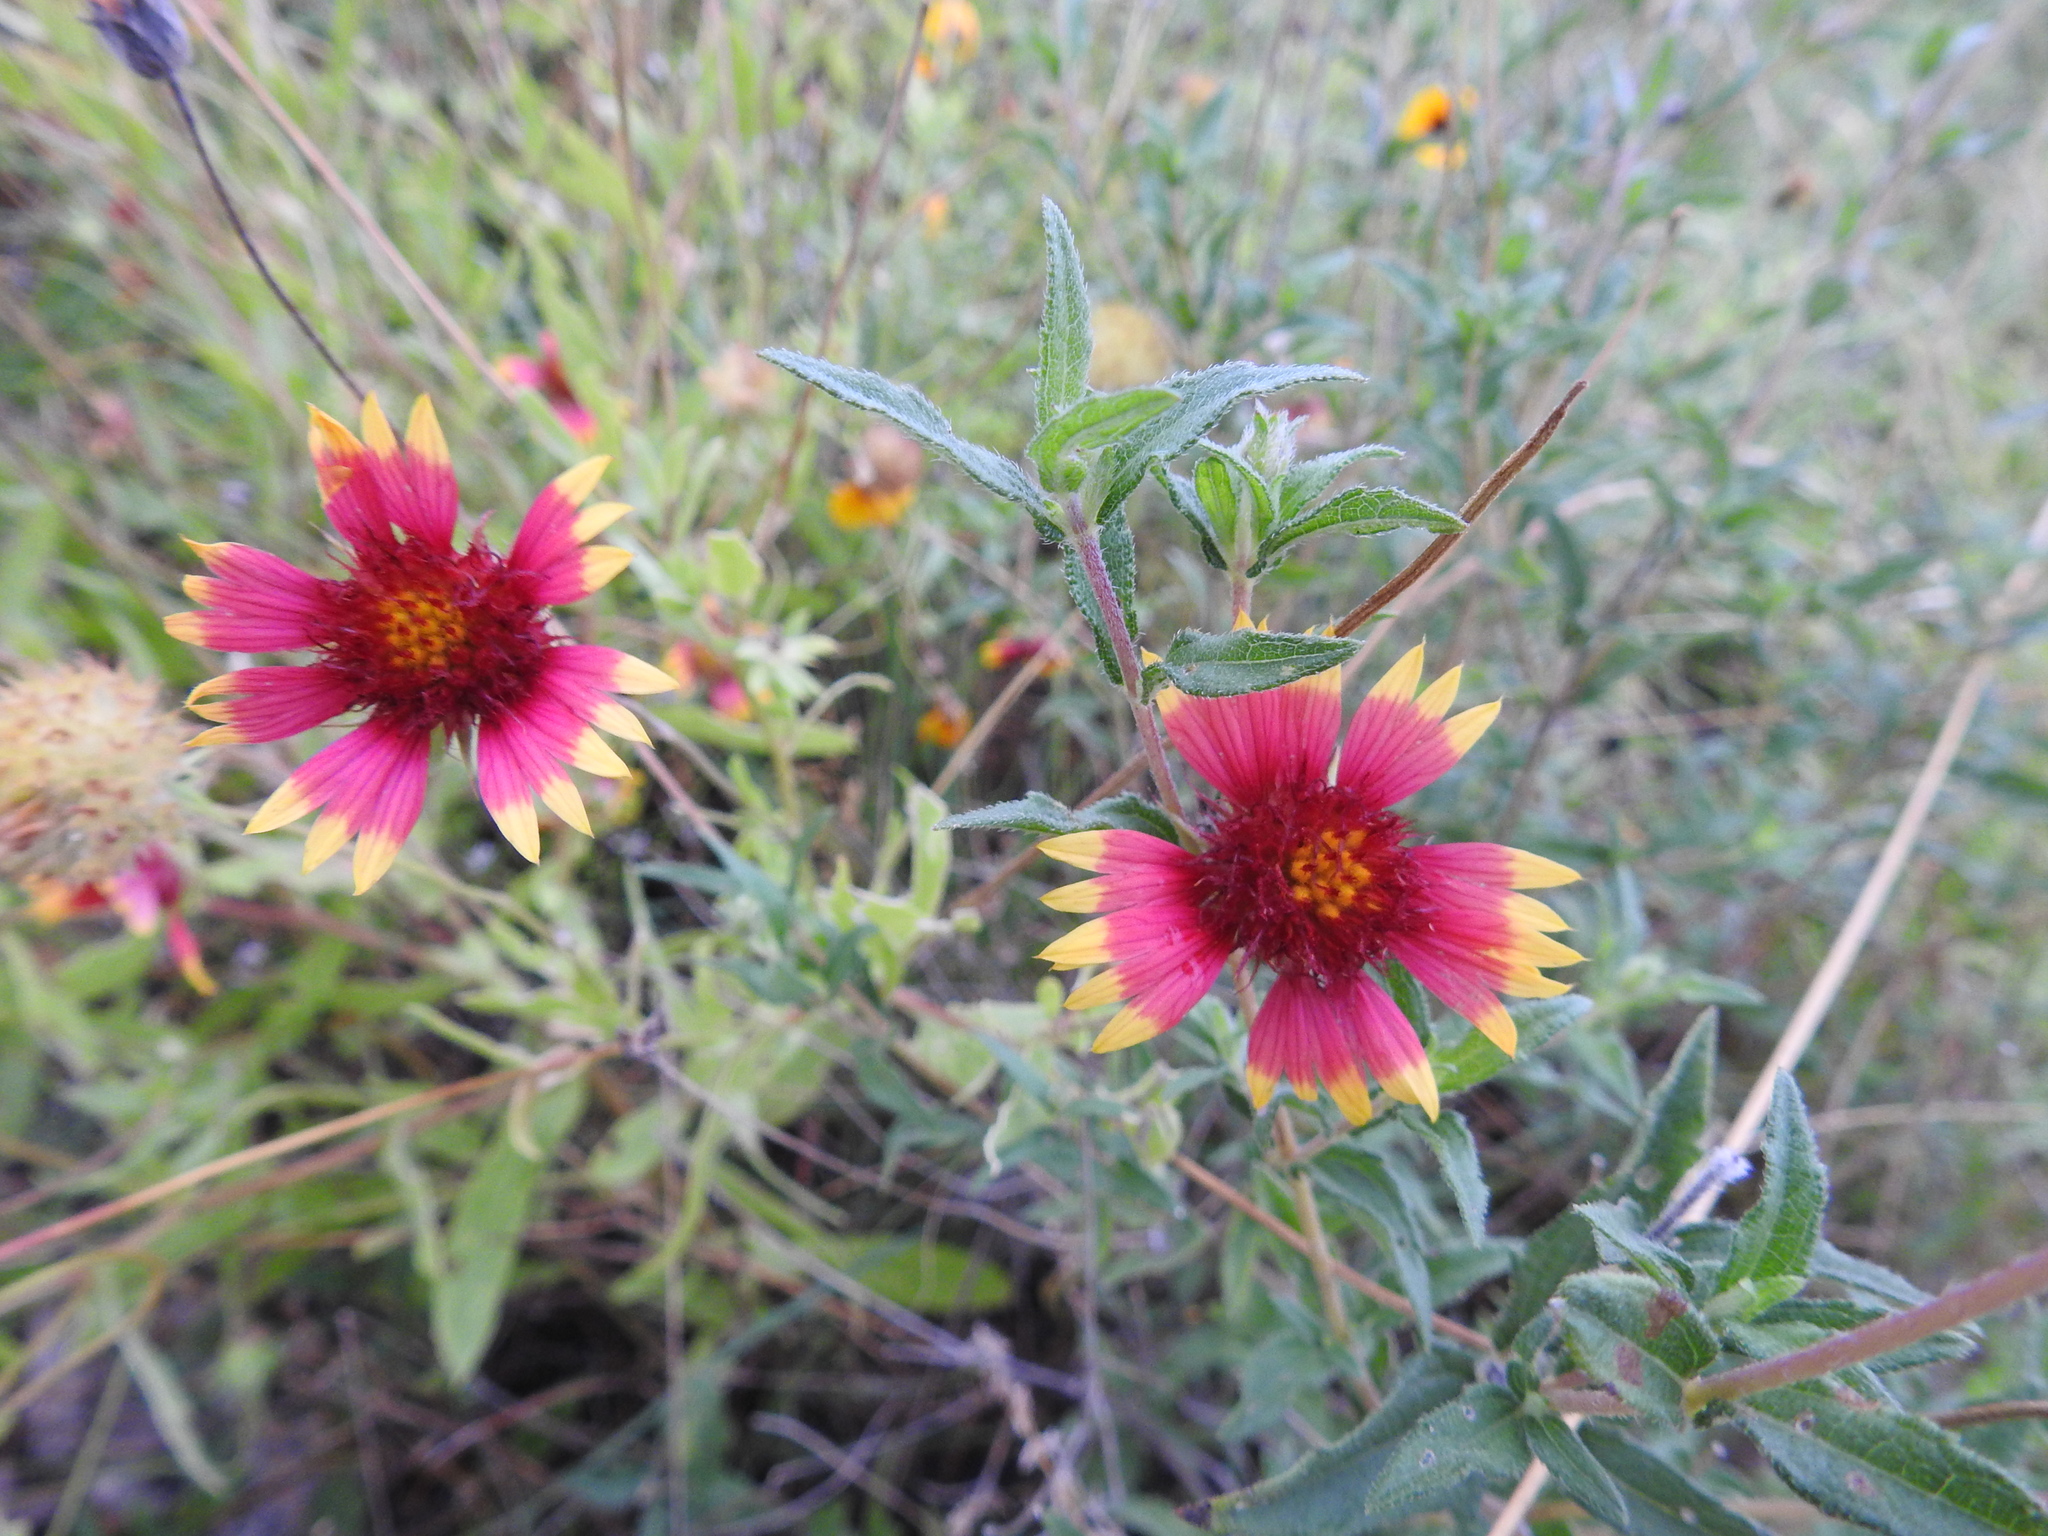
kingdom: Plantae
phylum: Tracheophyta
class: Magnoliopsida
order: Asterales
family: Asteraceae
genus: Gaillardia
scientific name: Gaillardia pulchella
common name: Firewheel
